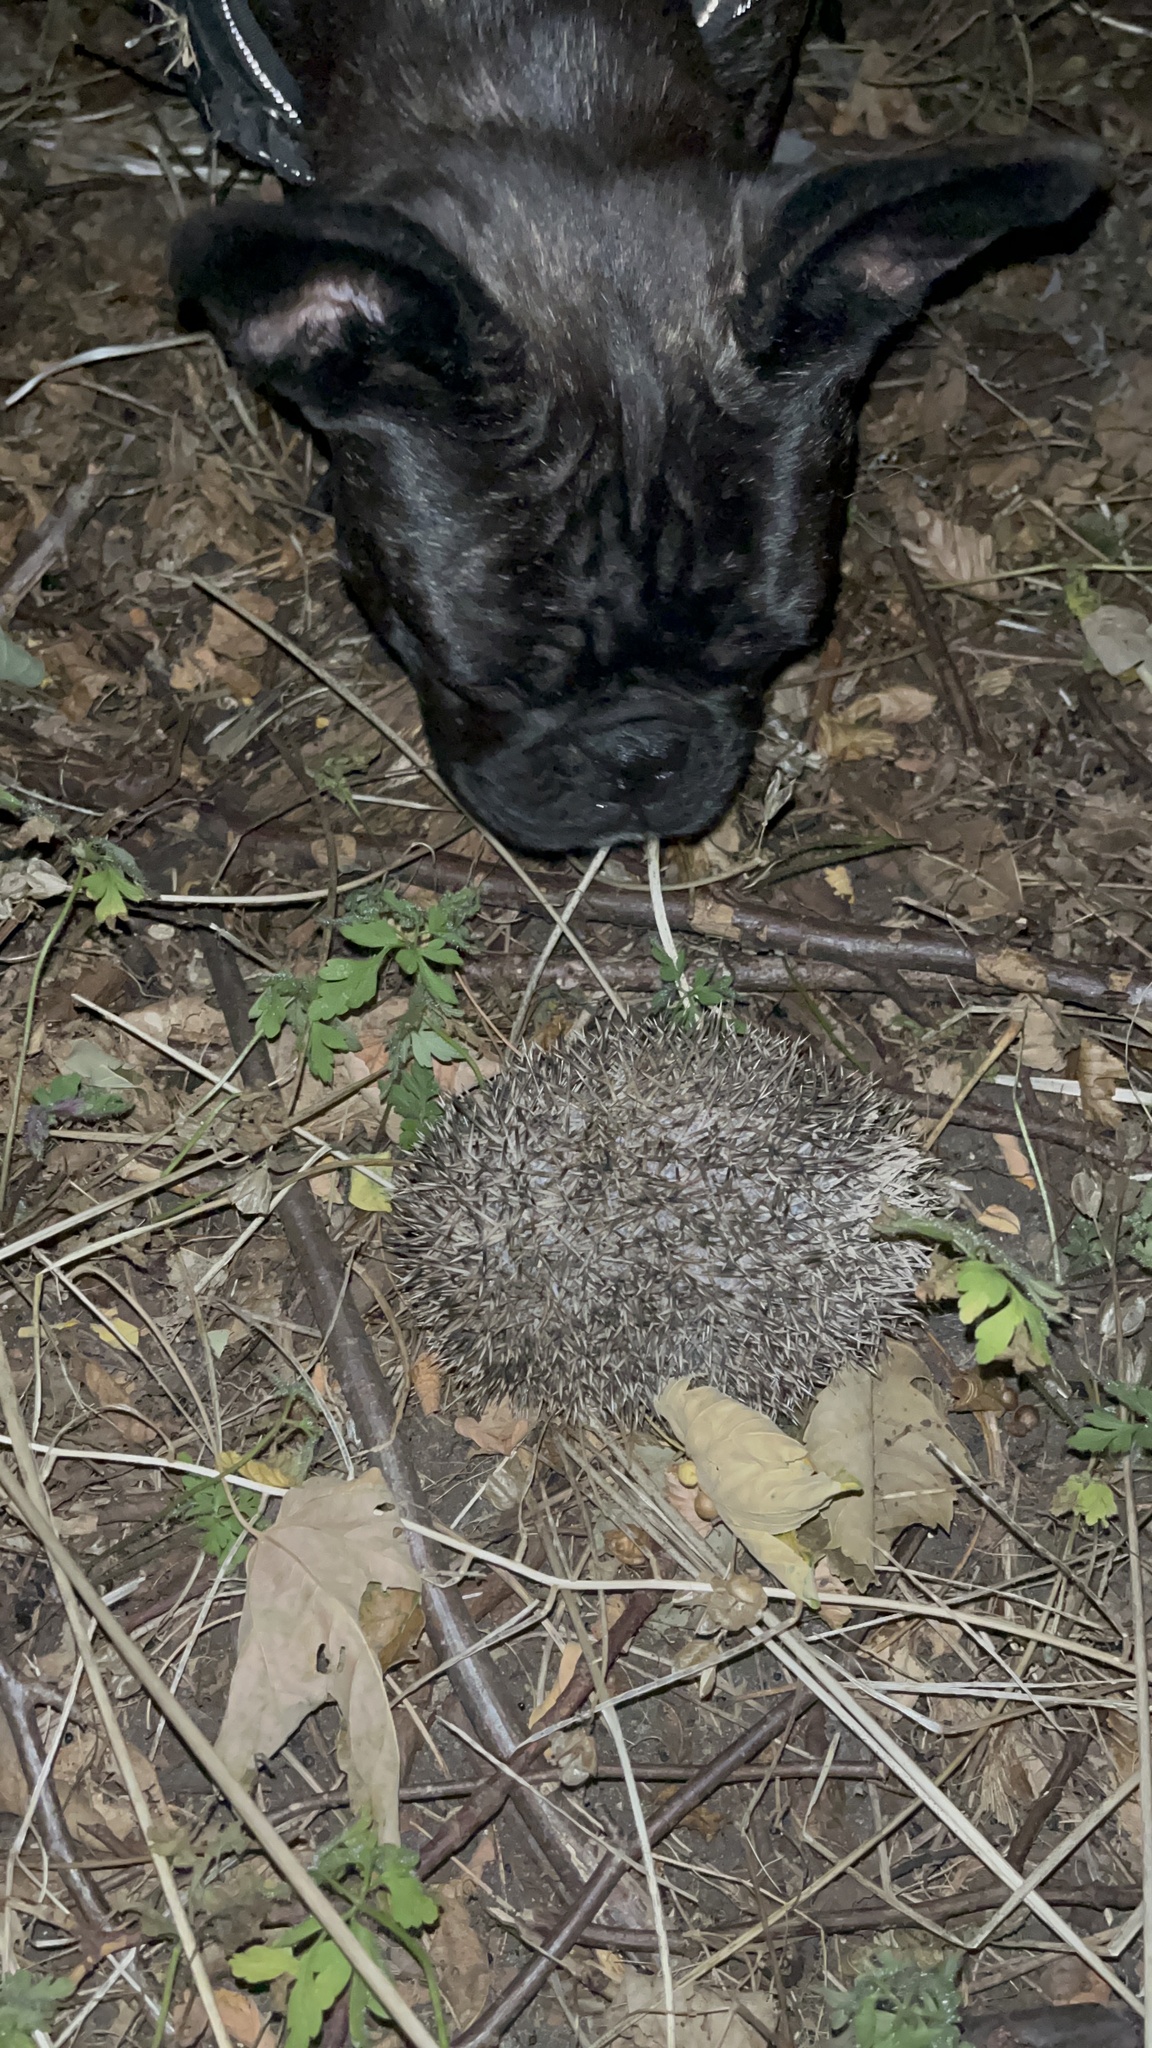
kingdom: Animalia
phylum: Chordata
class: Mammalia
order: Erinaceomorpha
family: Erinaceidae
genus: Erinaceus
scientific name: Erinaceus europaeus
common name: West european hedgehog
